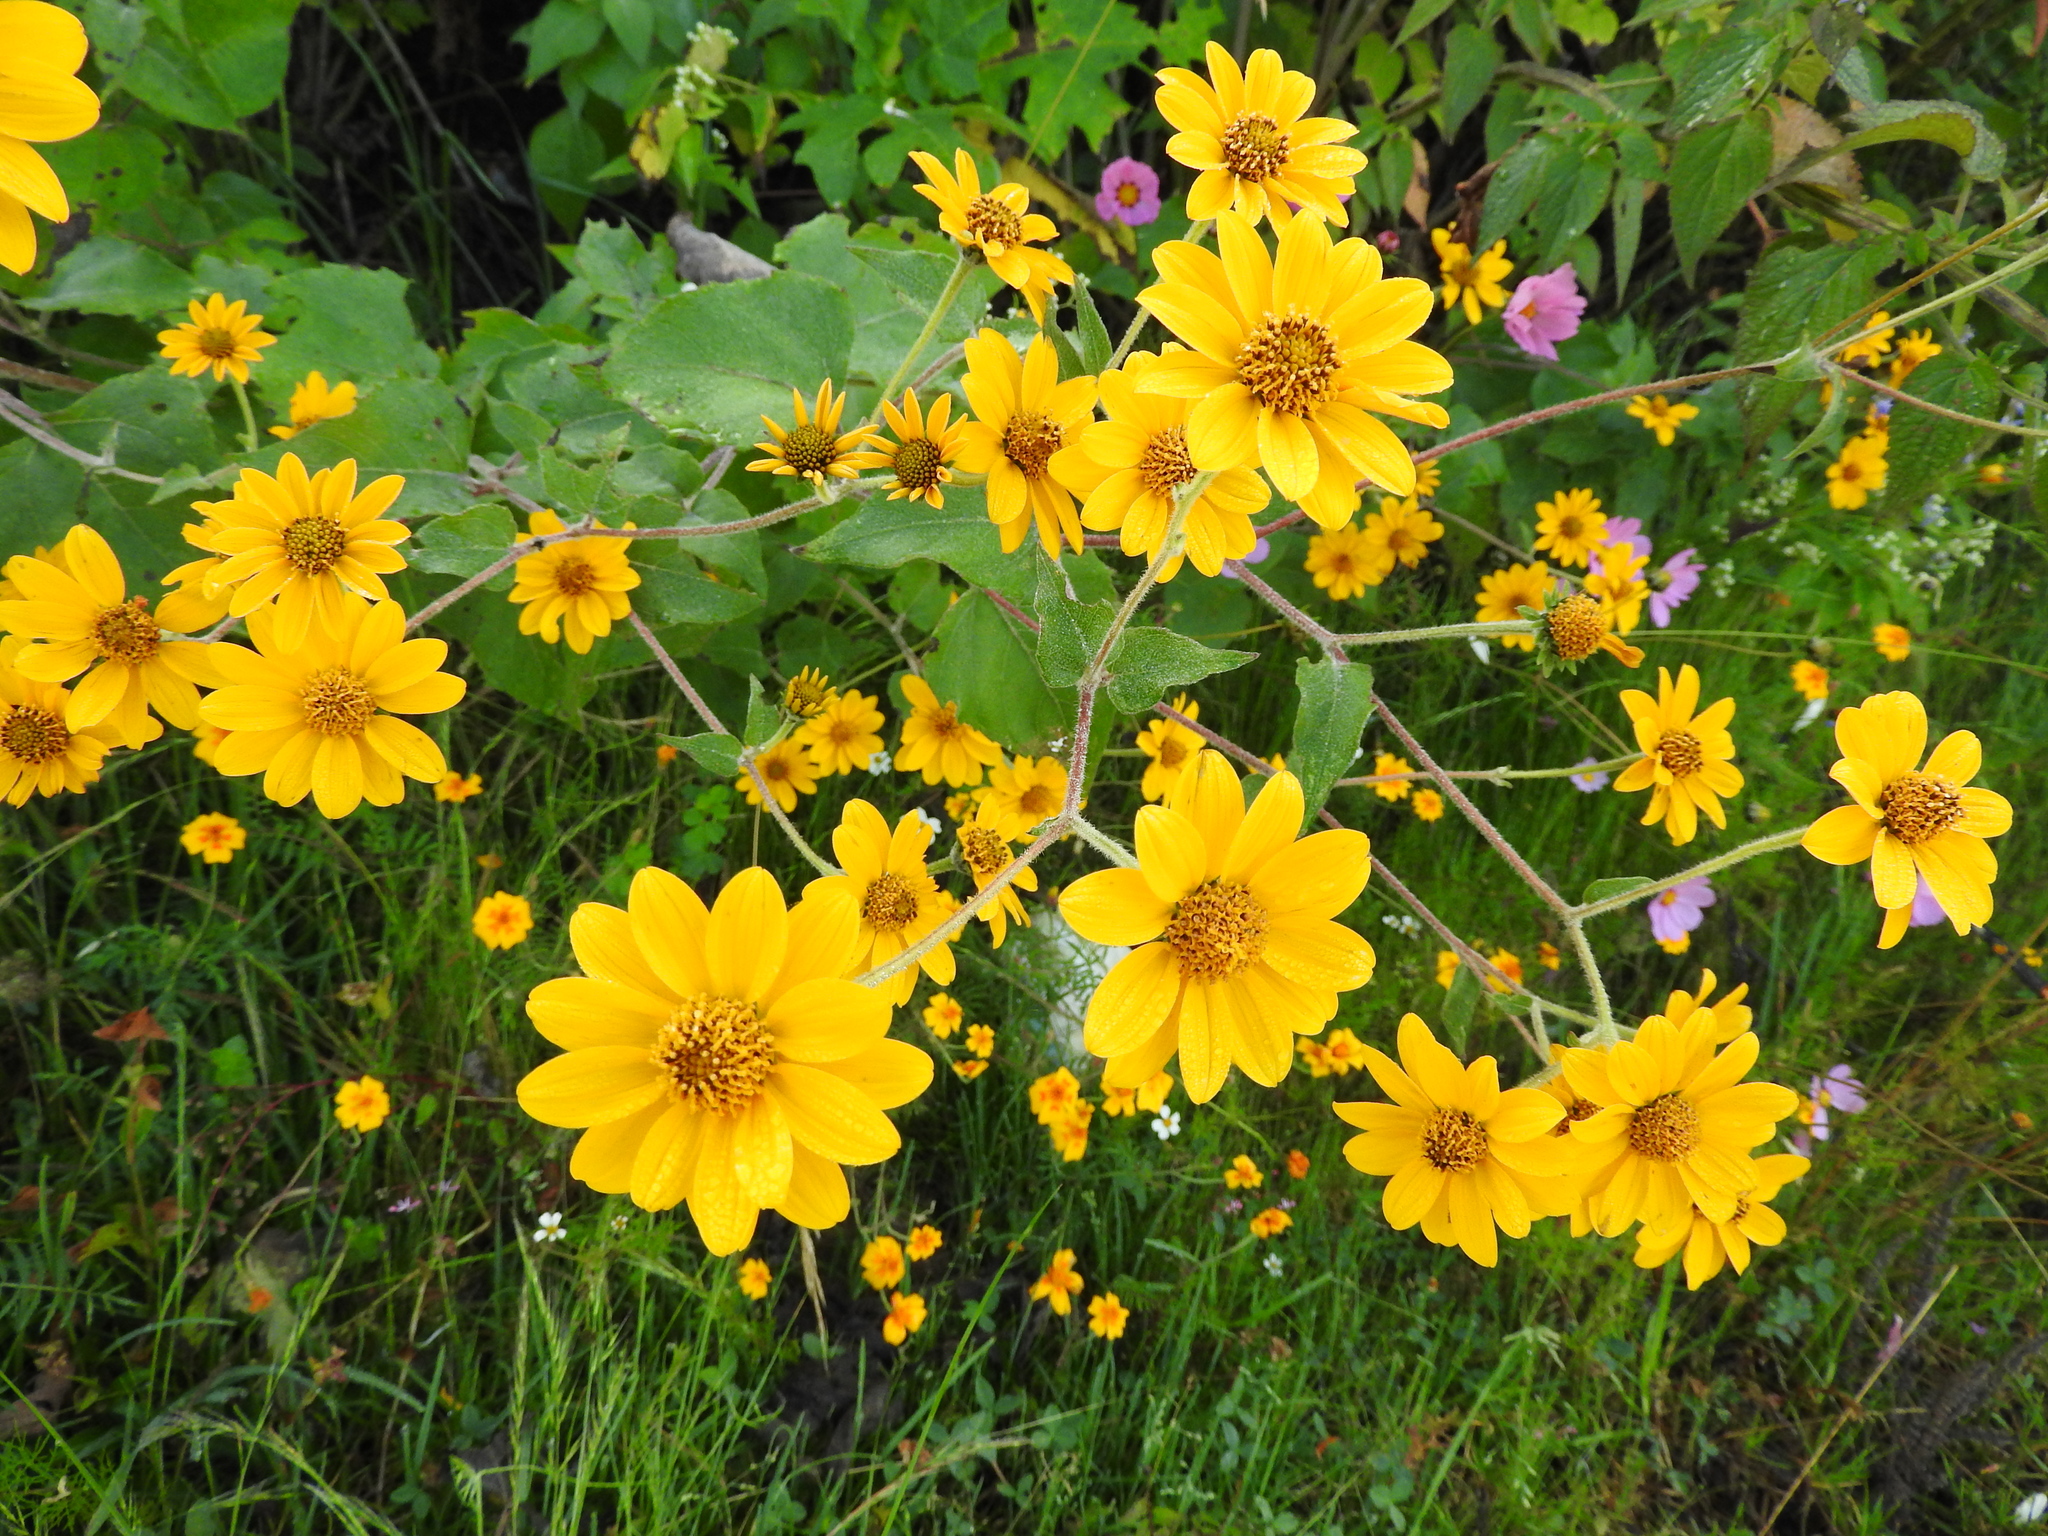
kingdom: Plantae
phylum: Tracheophyta
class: Magnoliopsida
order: Asterales
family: Asteraceae
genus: Viguiera
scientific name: Viguiera dentata
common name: Toothleaf
